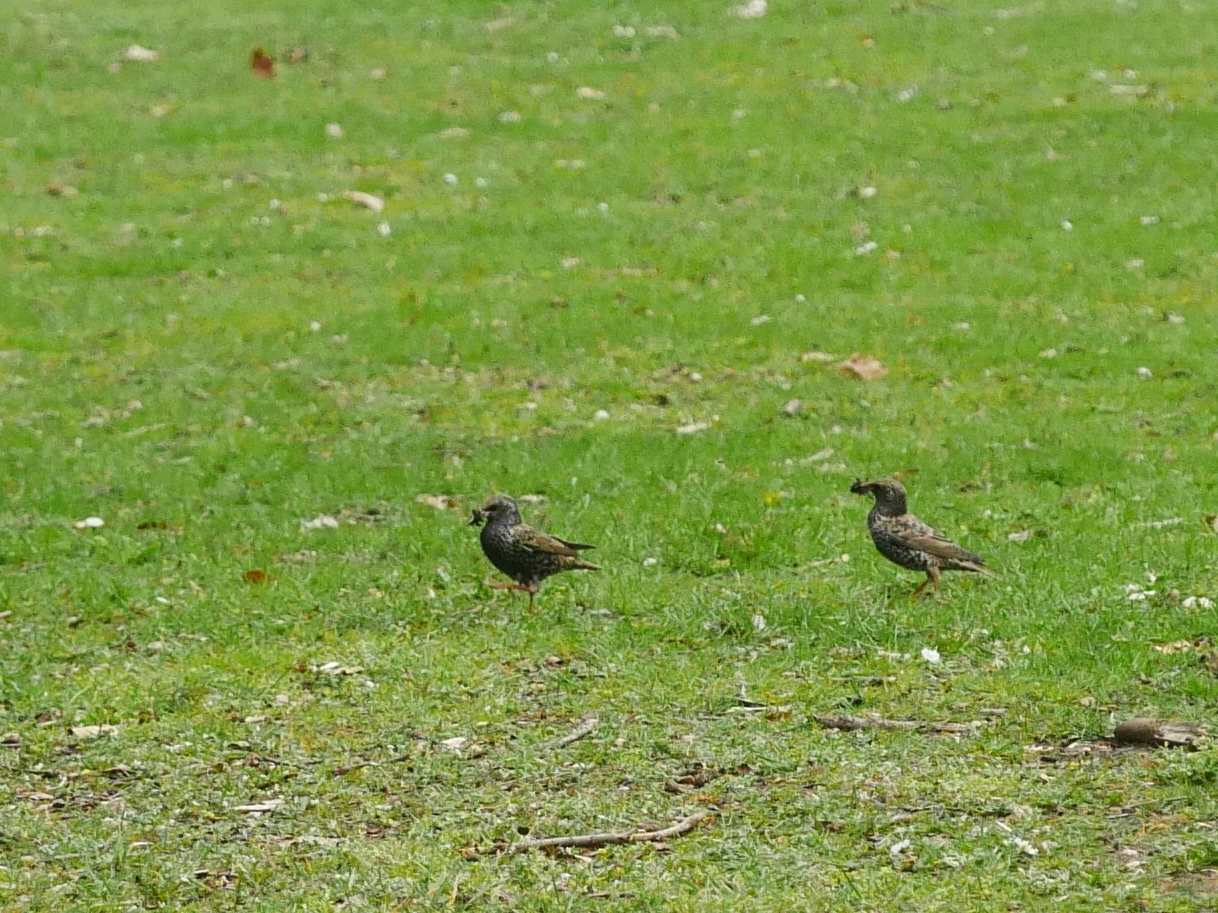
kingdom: Animalia
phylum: Chordata
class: Aves
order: Passeriformes
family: Sturnidae
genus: Sturnus
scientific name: Sturnus vulgaris
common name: Common starling
